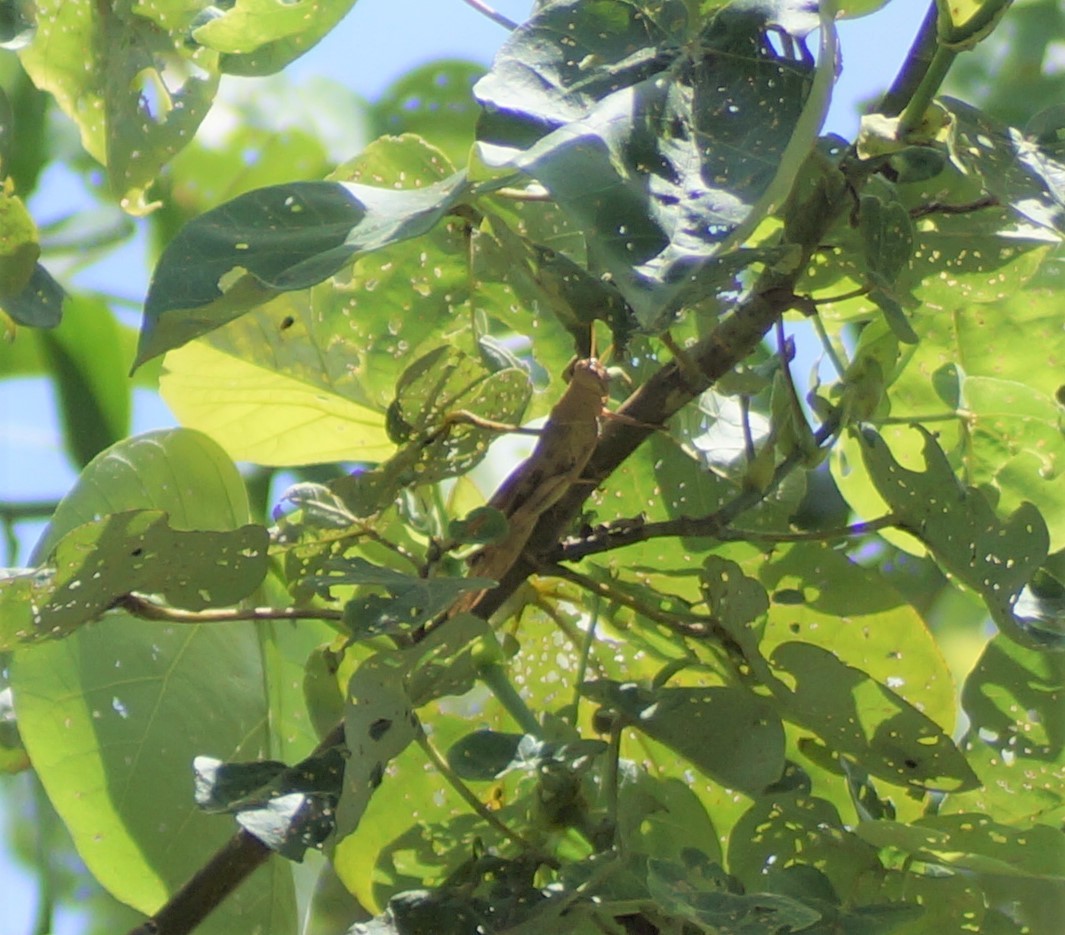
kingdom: Animalia
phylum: Arthropoda
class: Insecta
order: Orthoptera
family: Acrididae
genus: Austracris
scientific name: Austracris basalis
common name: Spotted spur-throated locust
